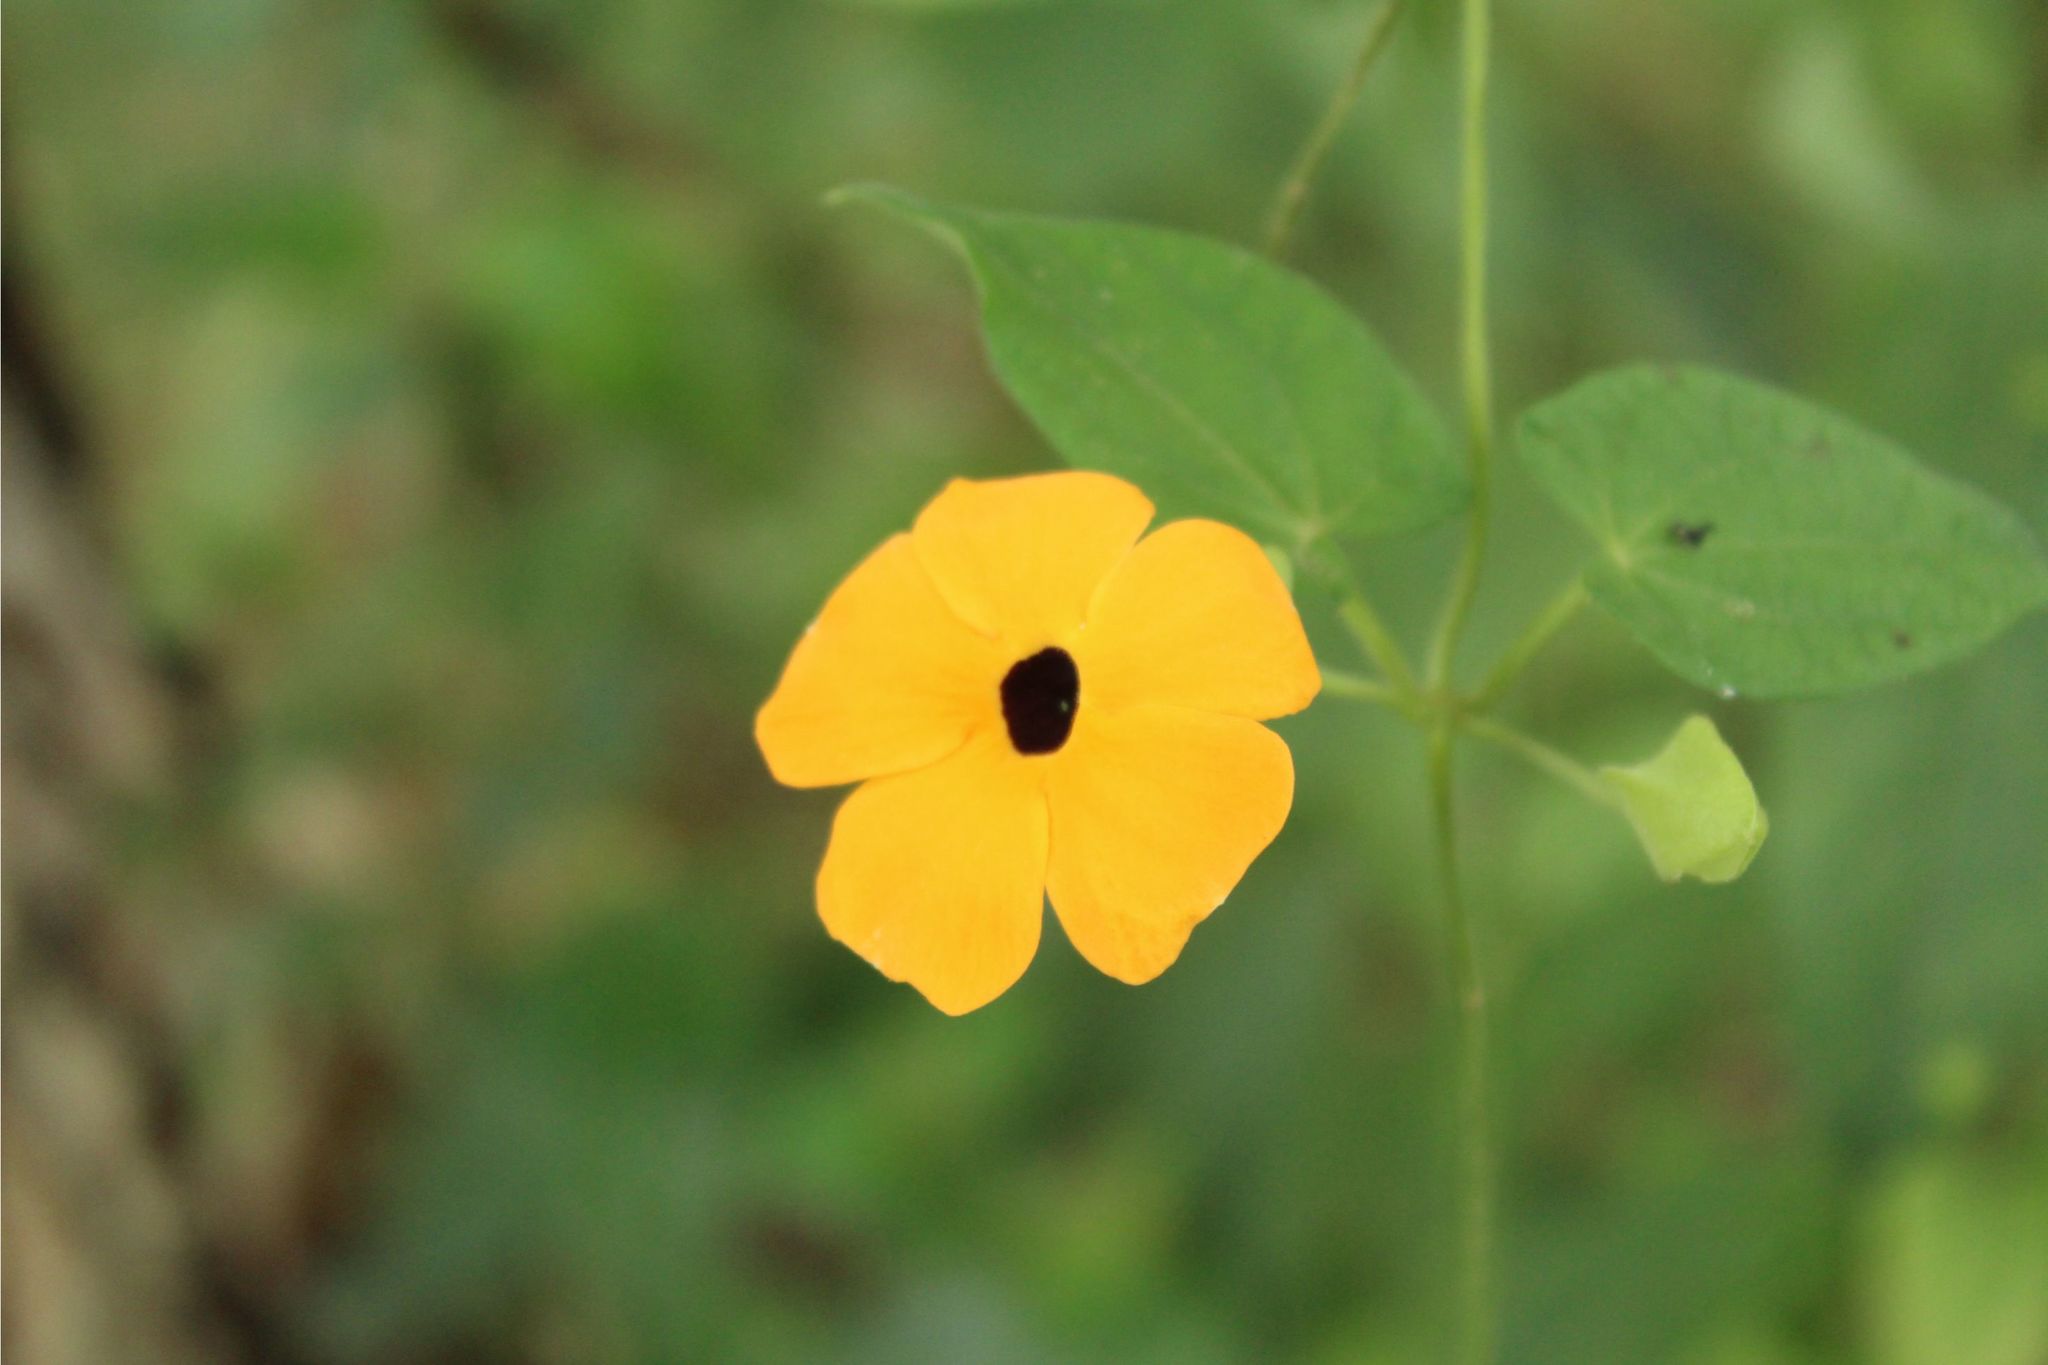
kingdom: Plantae
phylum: Tracheophyta
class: Magnoliopsida
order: Lamiales
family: Acanthaceae
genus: Thunbergia
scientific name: Thunbergia alata
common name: Blackeyed susan vine
